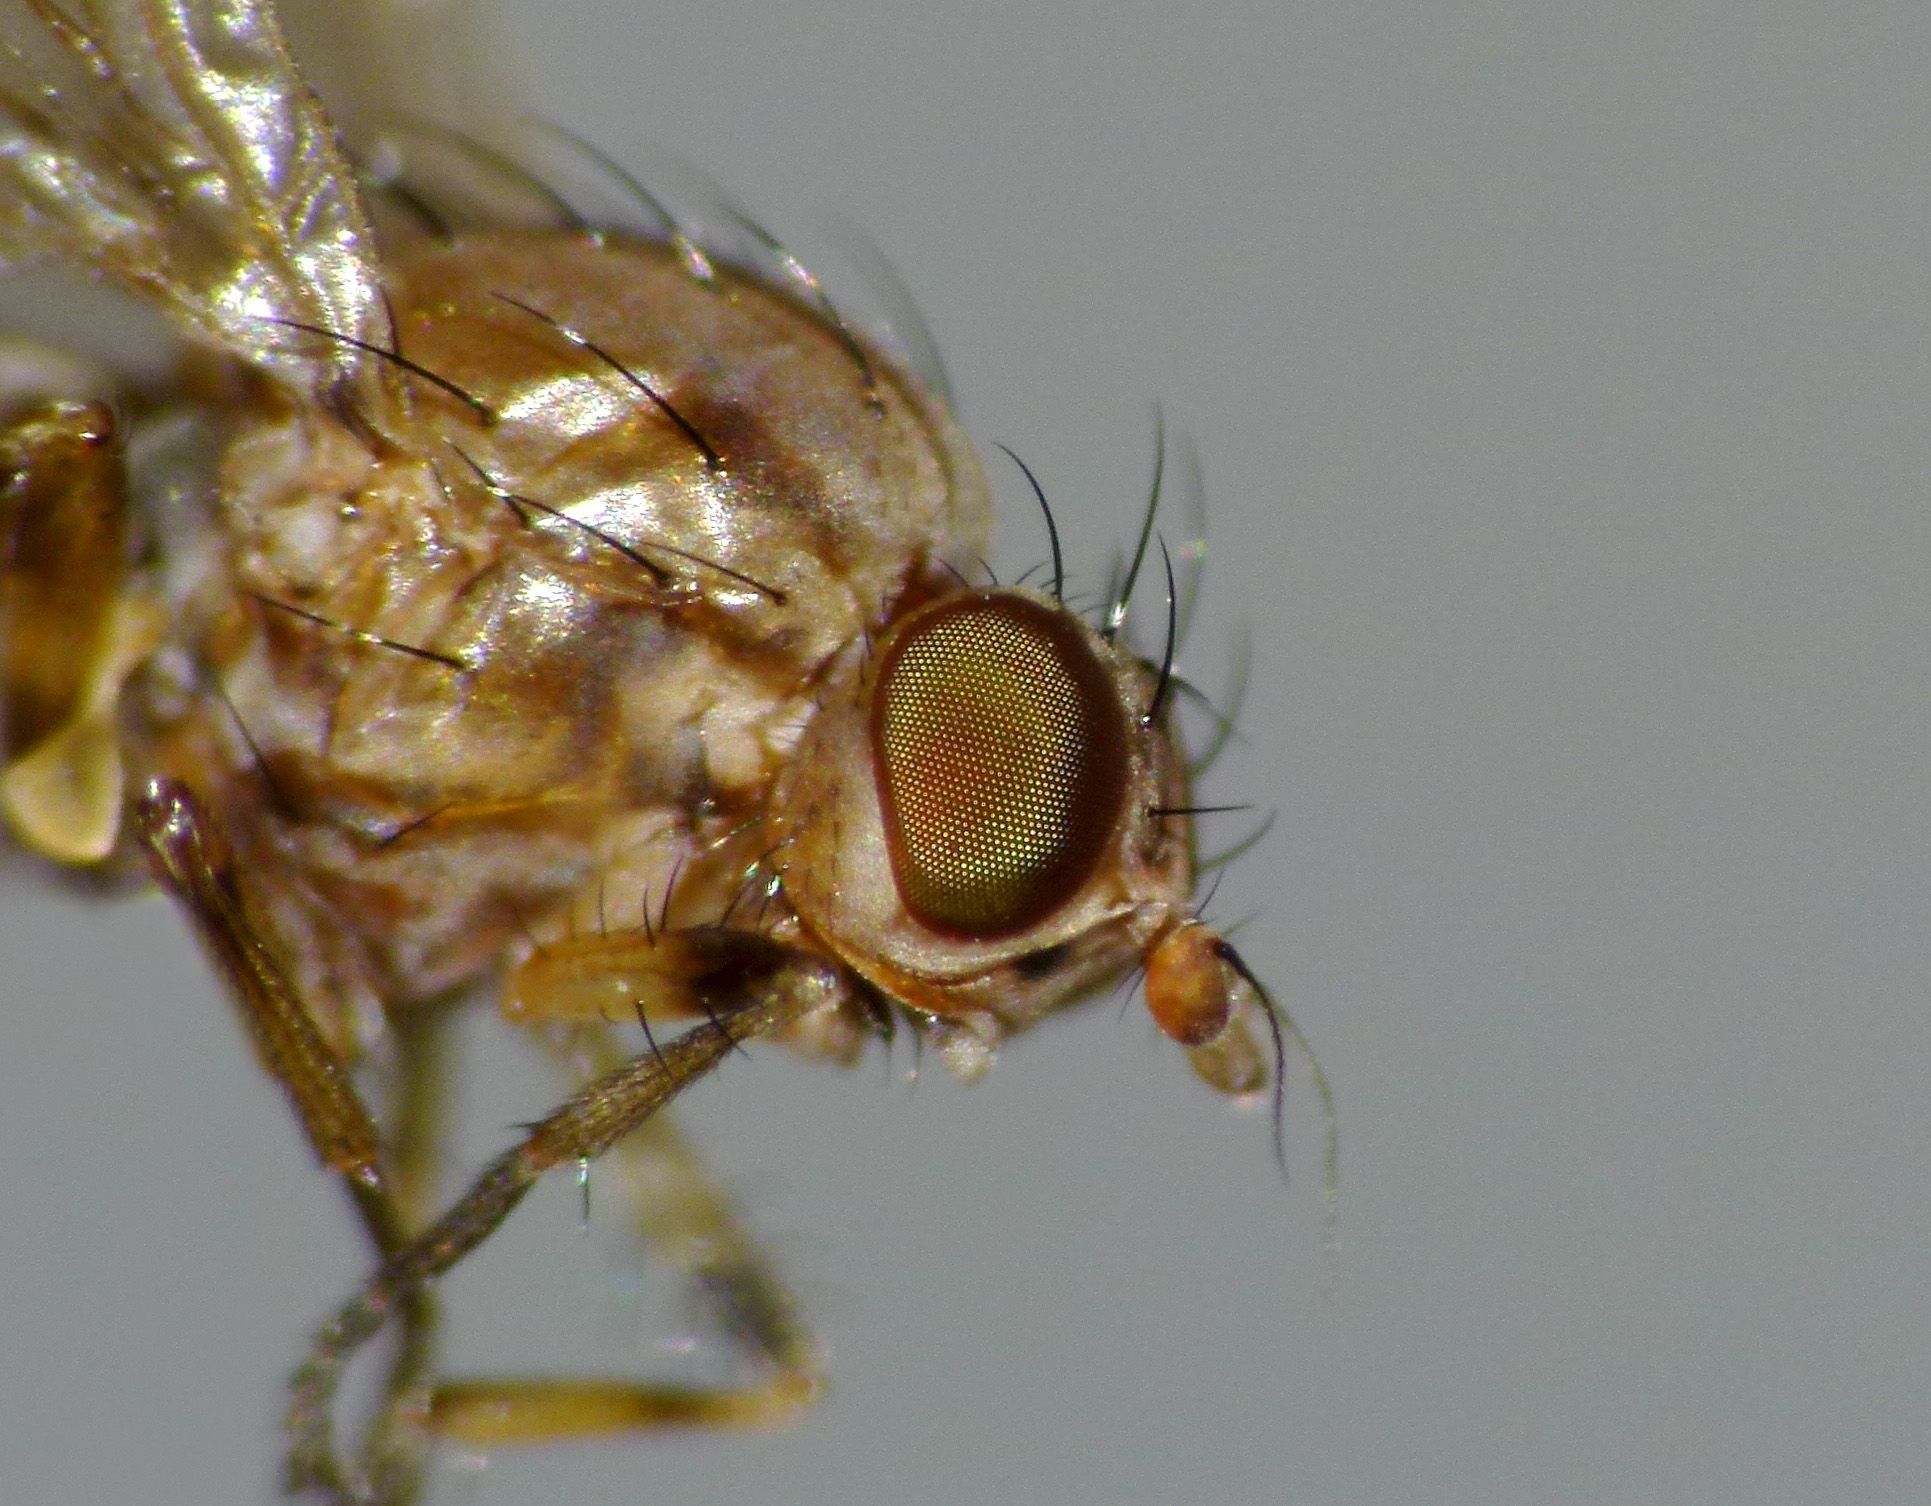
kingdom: Animalia
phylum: Arthropoda
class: Insecta
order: Diptera
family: Lauxaniidae
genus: Poecilohetaerus
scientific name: Poecilohetaerus punctatifacies
